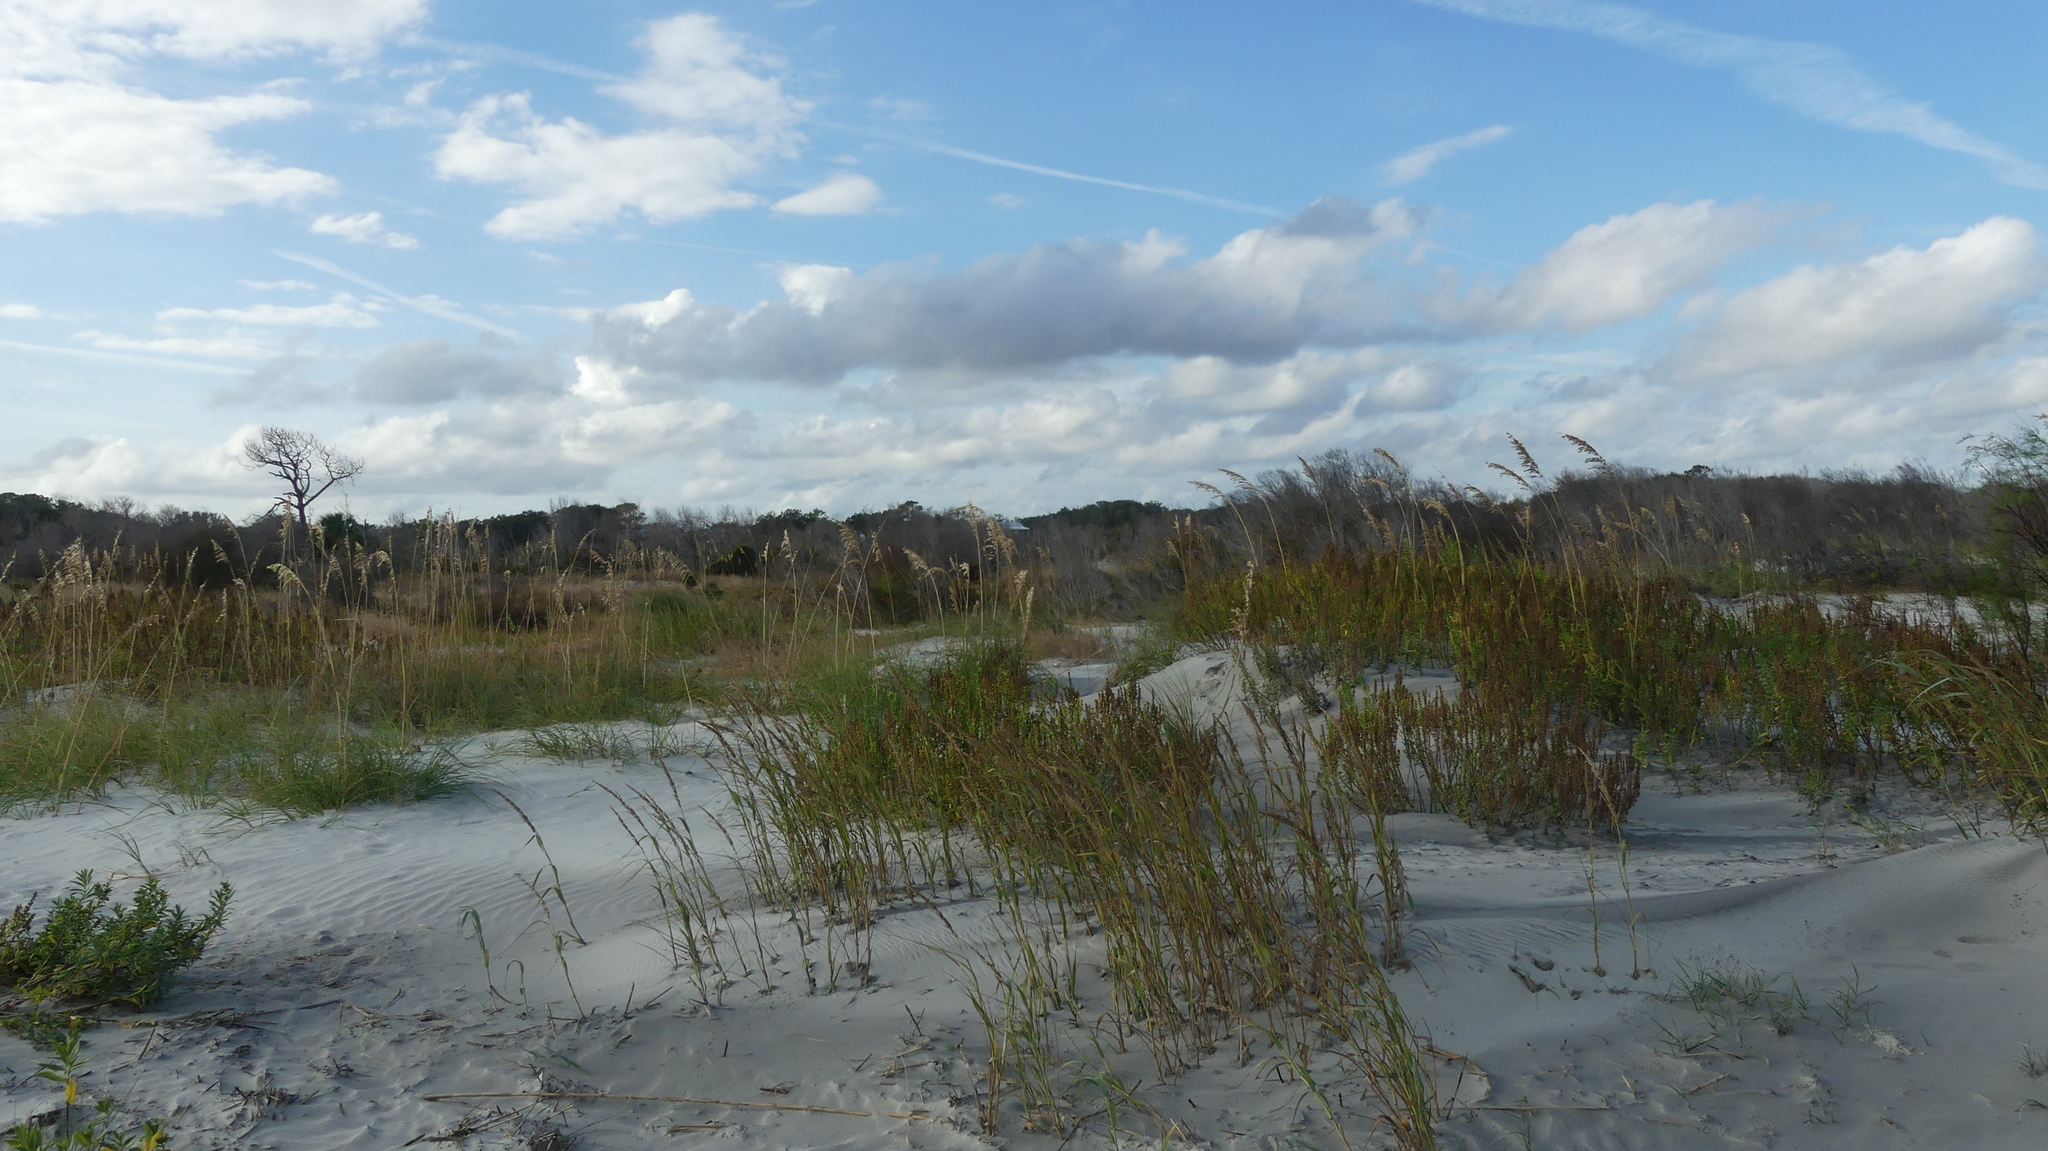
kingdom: Plantae
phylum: Tracheophyta
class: Liliopsida
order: Poales
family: Poaceae
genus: Uniola
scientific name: Uniola paniculata
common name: Seaside-oats
